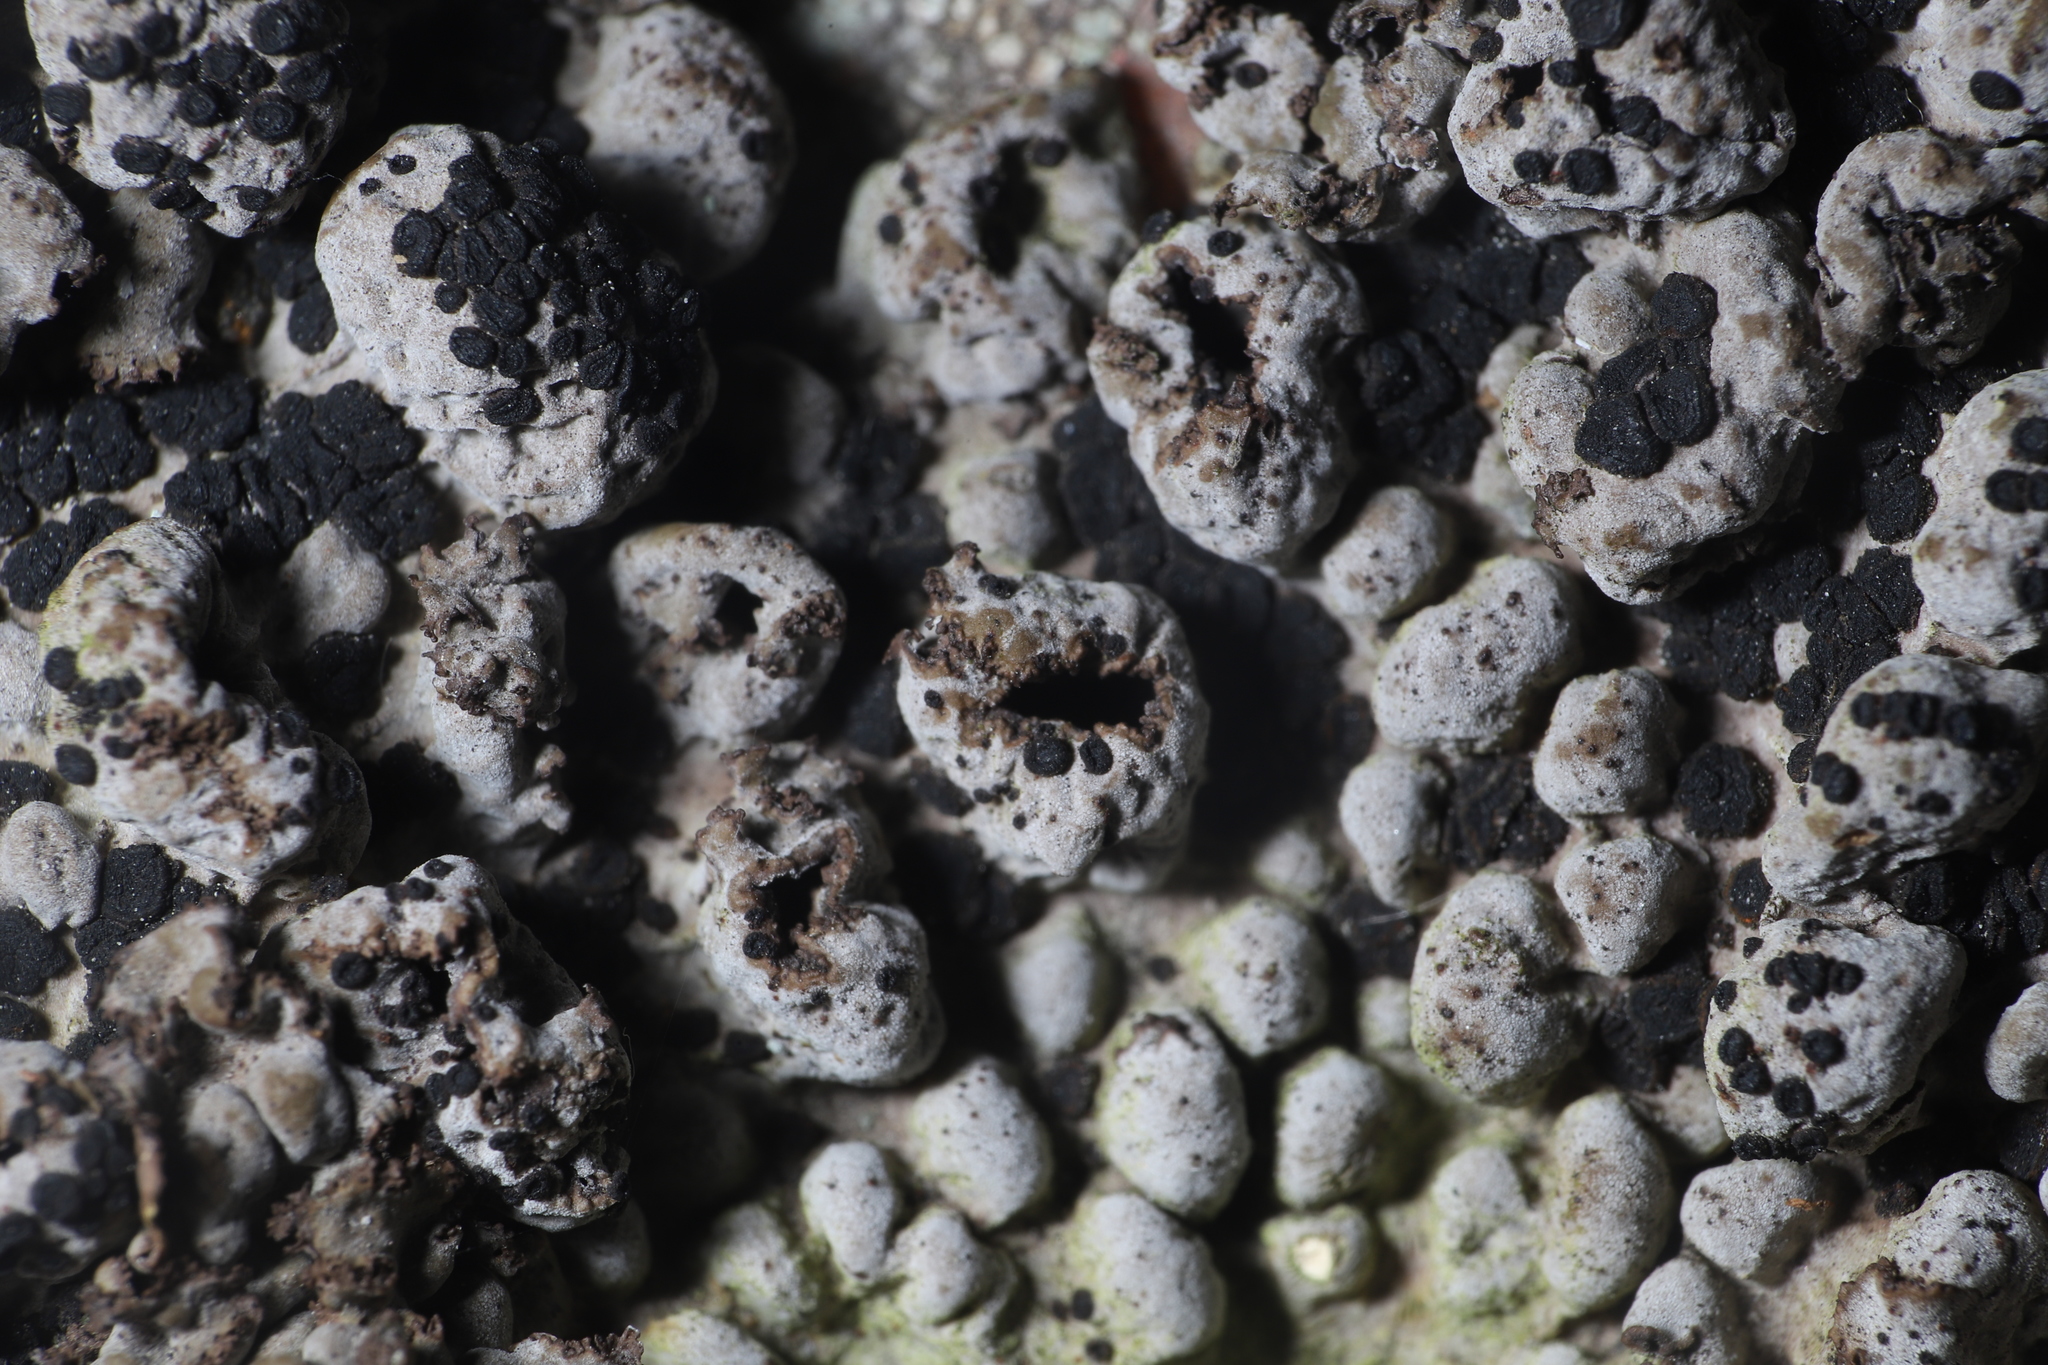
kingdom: Fungi
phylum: Ascomycota
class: Lecanoromycetes
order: Umbilicariales
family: Umbilicariaceae
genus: Lasallia
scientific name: Lasallia papulosa
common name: Common toadskin lichen
